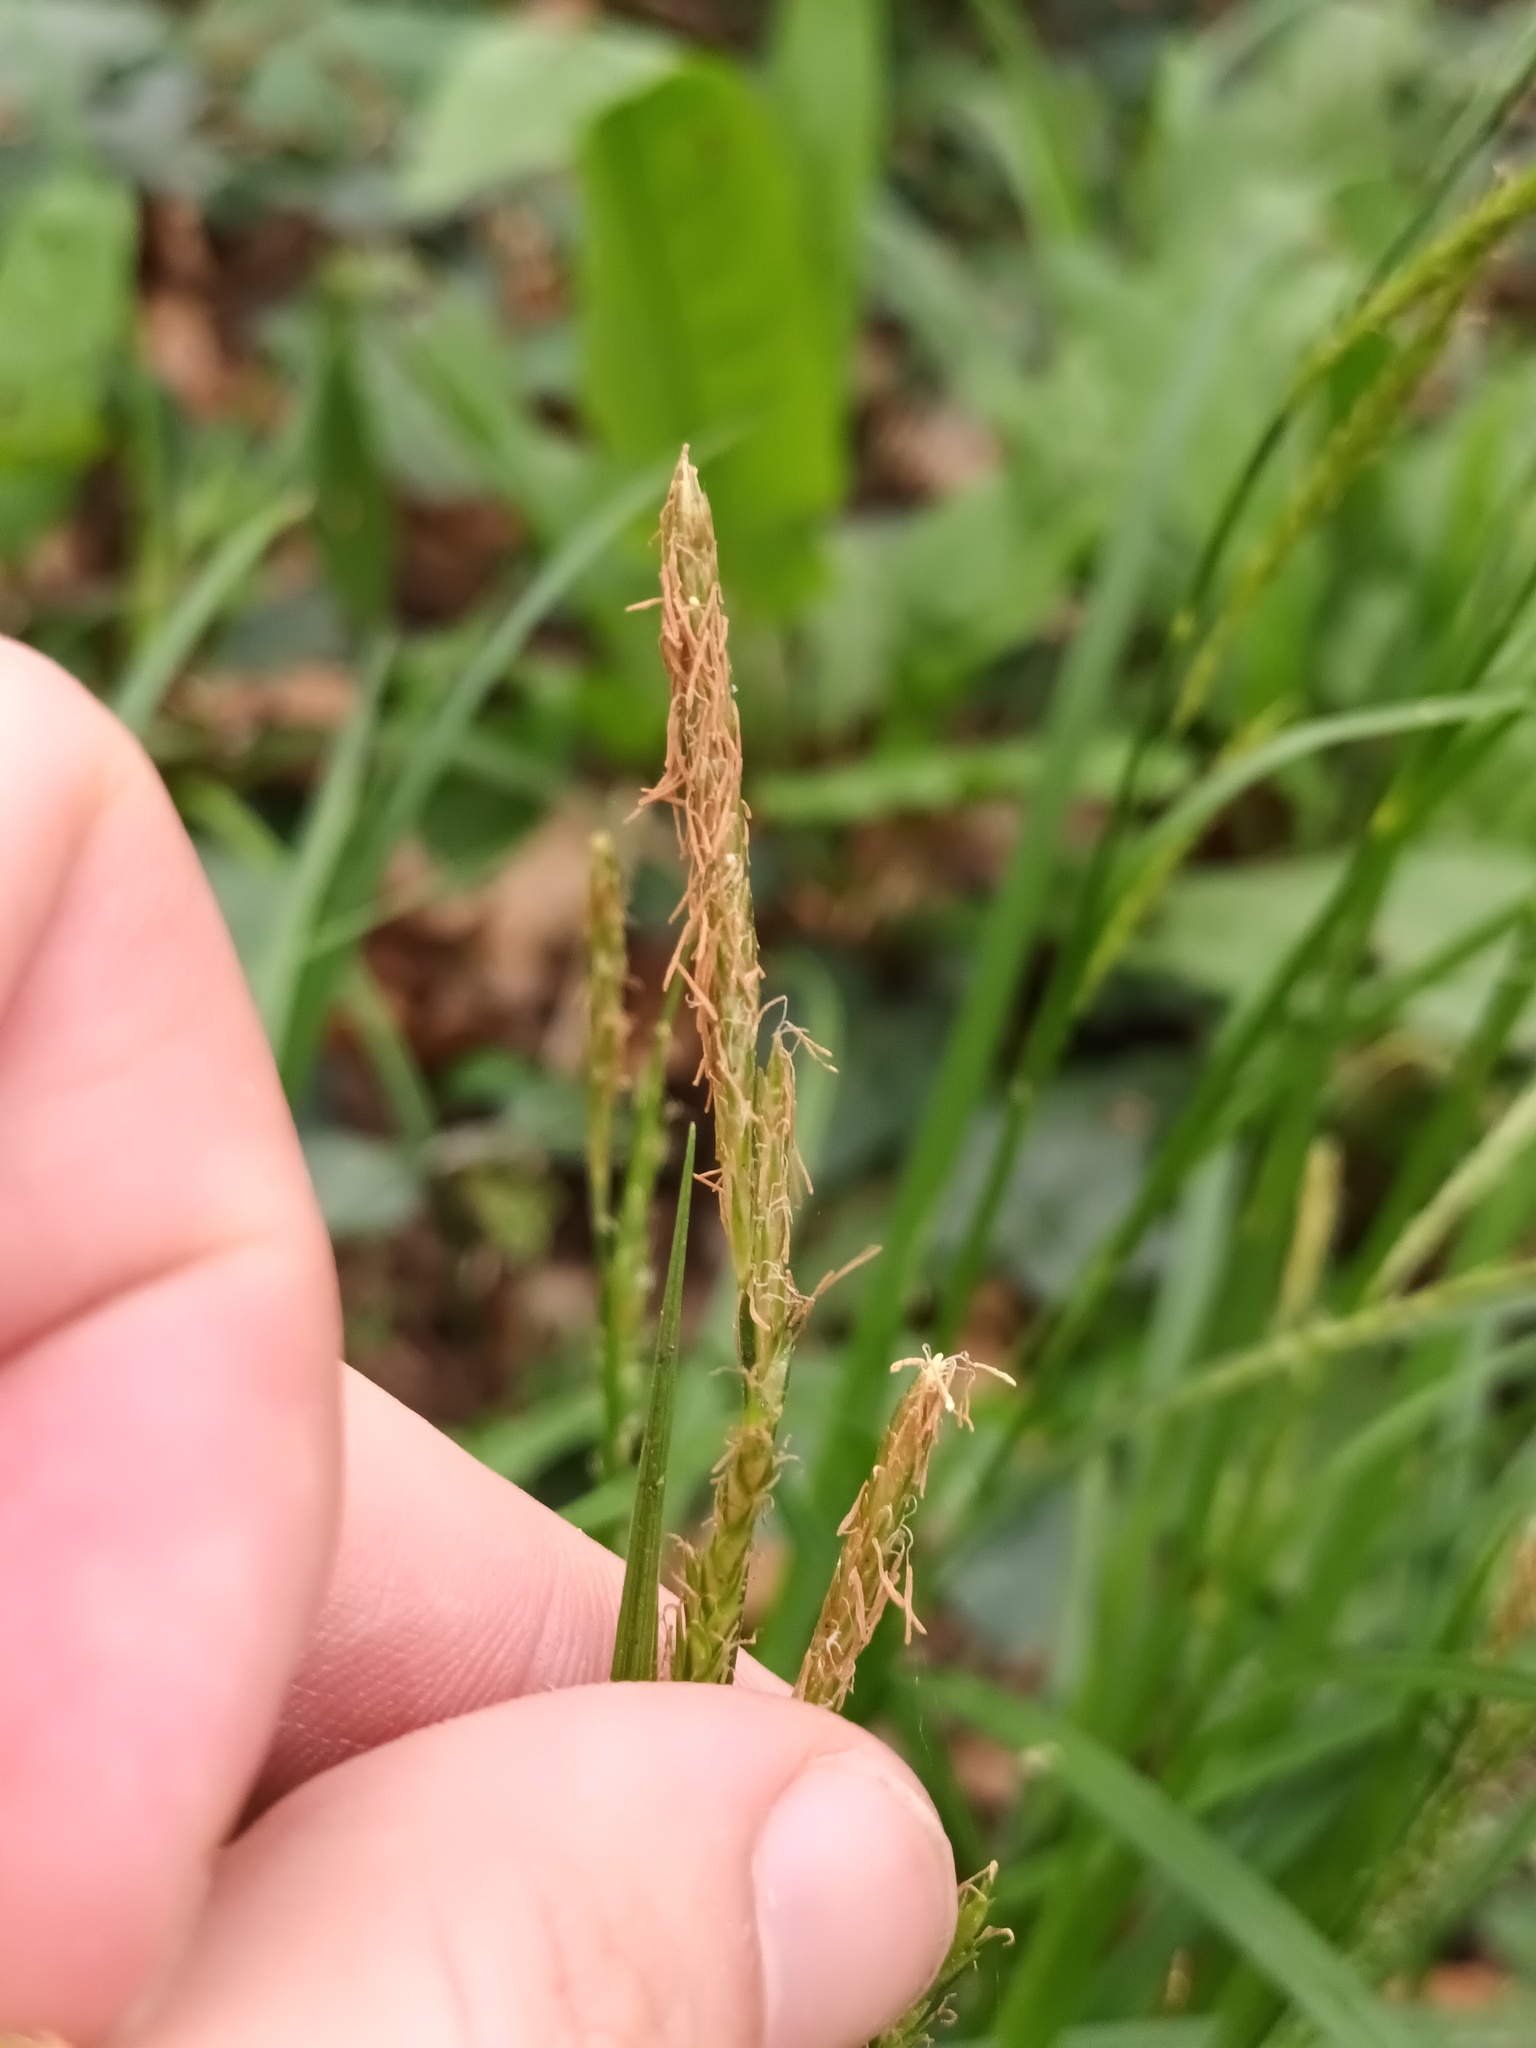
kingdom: Plantae
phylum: Tracheophyta
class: Liliopsida
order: Poales
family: Cyperaceae
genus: Carex
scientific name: Carex sylvatica
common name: Wood-sedge
